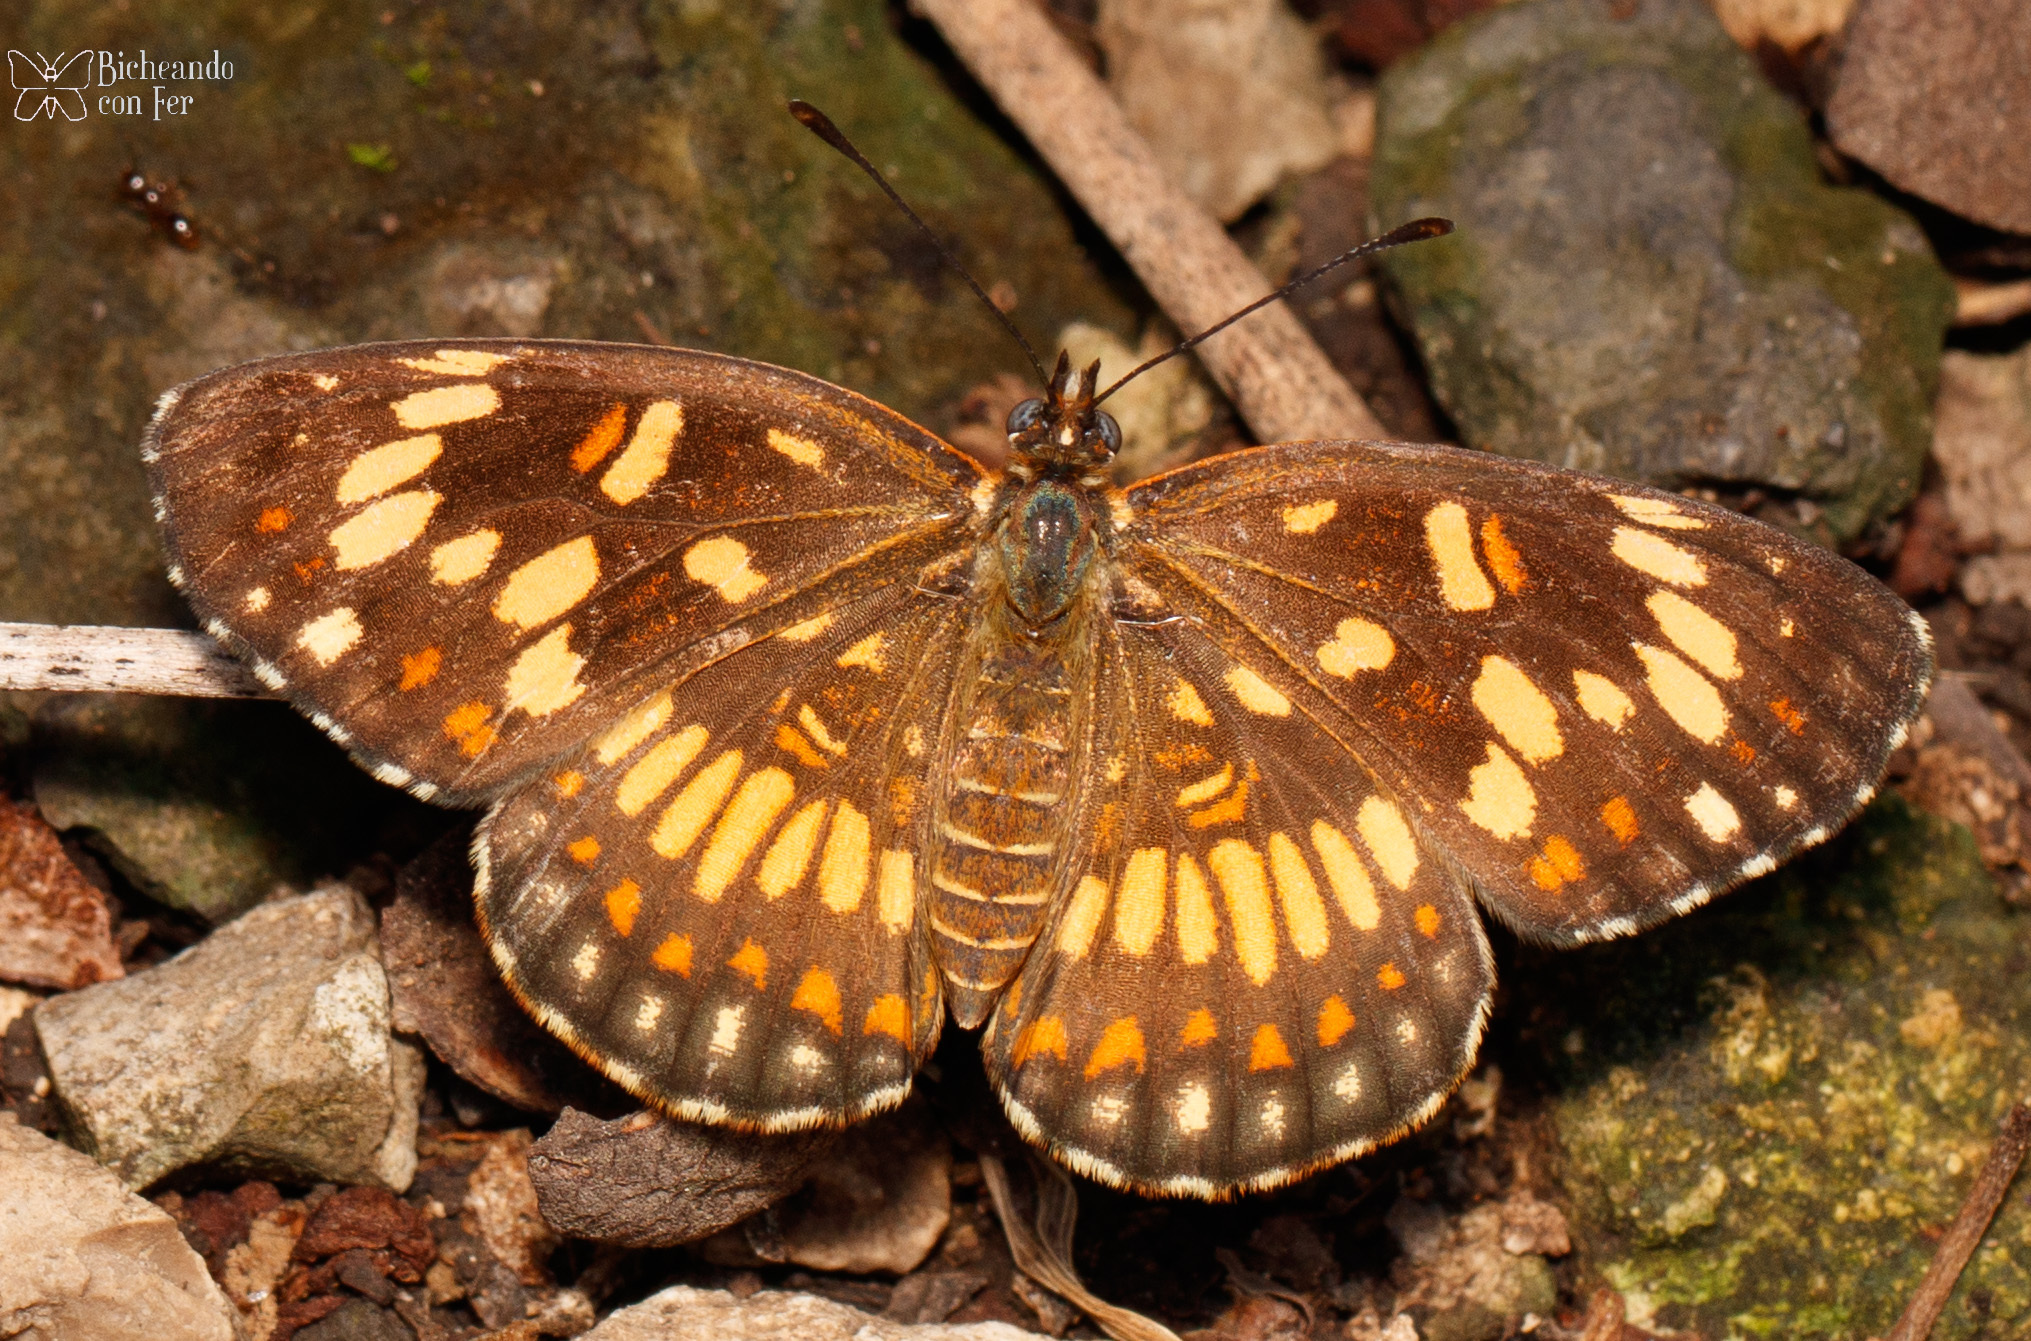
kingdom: Animalia
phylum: Arthropoda
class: Insecta
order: Lepidoptera
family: Nymphalidae
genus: Thessalia
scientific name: Thessalia theona
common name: Nymphalid moth
